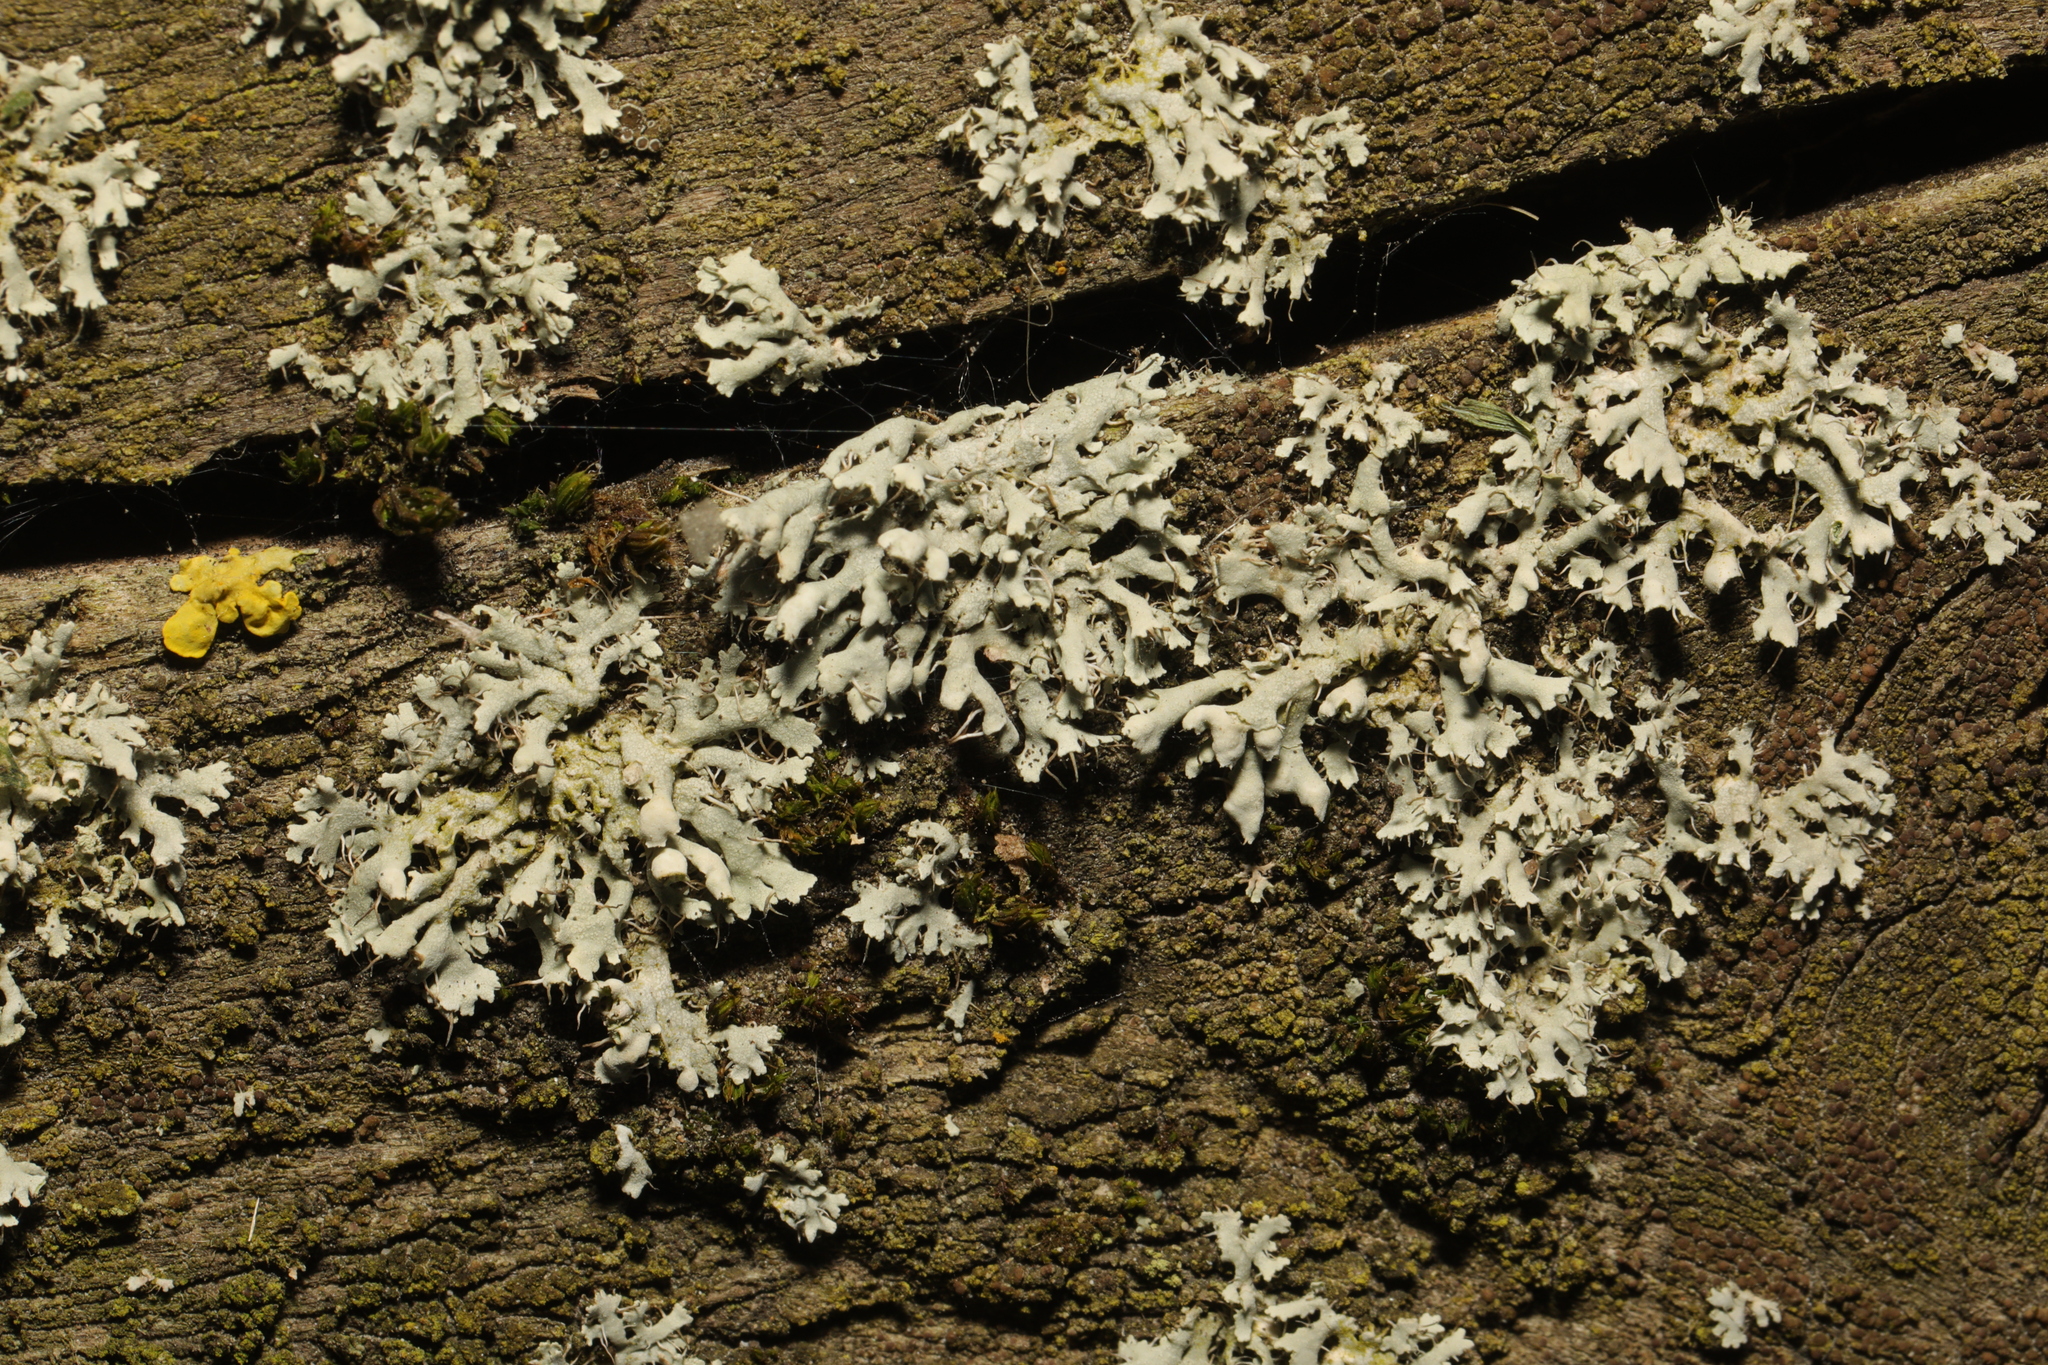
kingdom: Fungi
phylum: Ascomycota
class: Lecanoromycetes
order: Caliciales
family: Physciaceae
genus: Physcia
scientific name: Physcia adscendens
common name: Hooded rosette lichen
